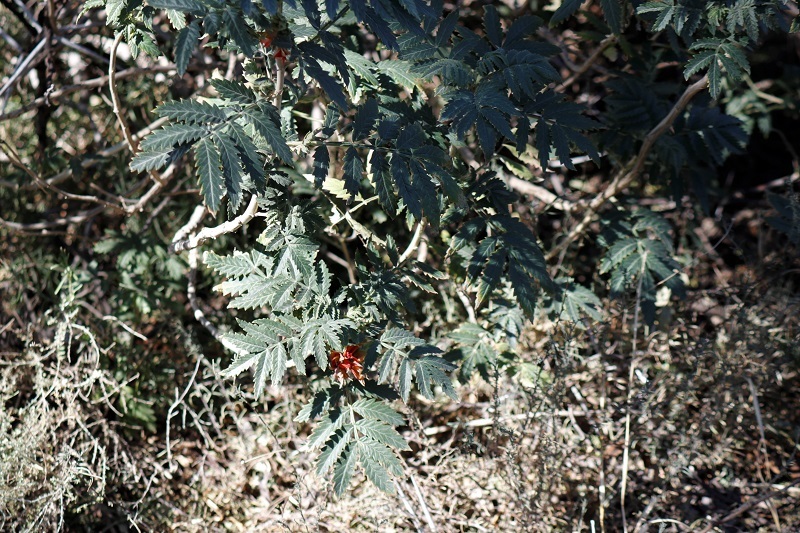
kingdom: Plantae
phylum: Tracheophyta
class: Magnoliopsida
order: Geraniales
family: Melianthaceae
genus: Melianthus
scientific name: Melianthus comosus
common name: Touch-me-not
